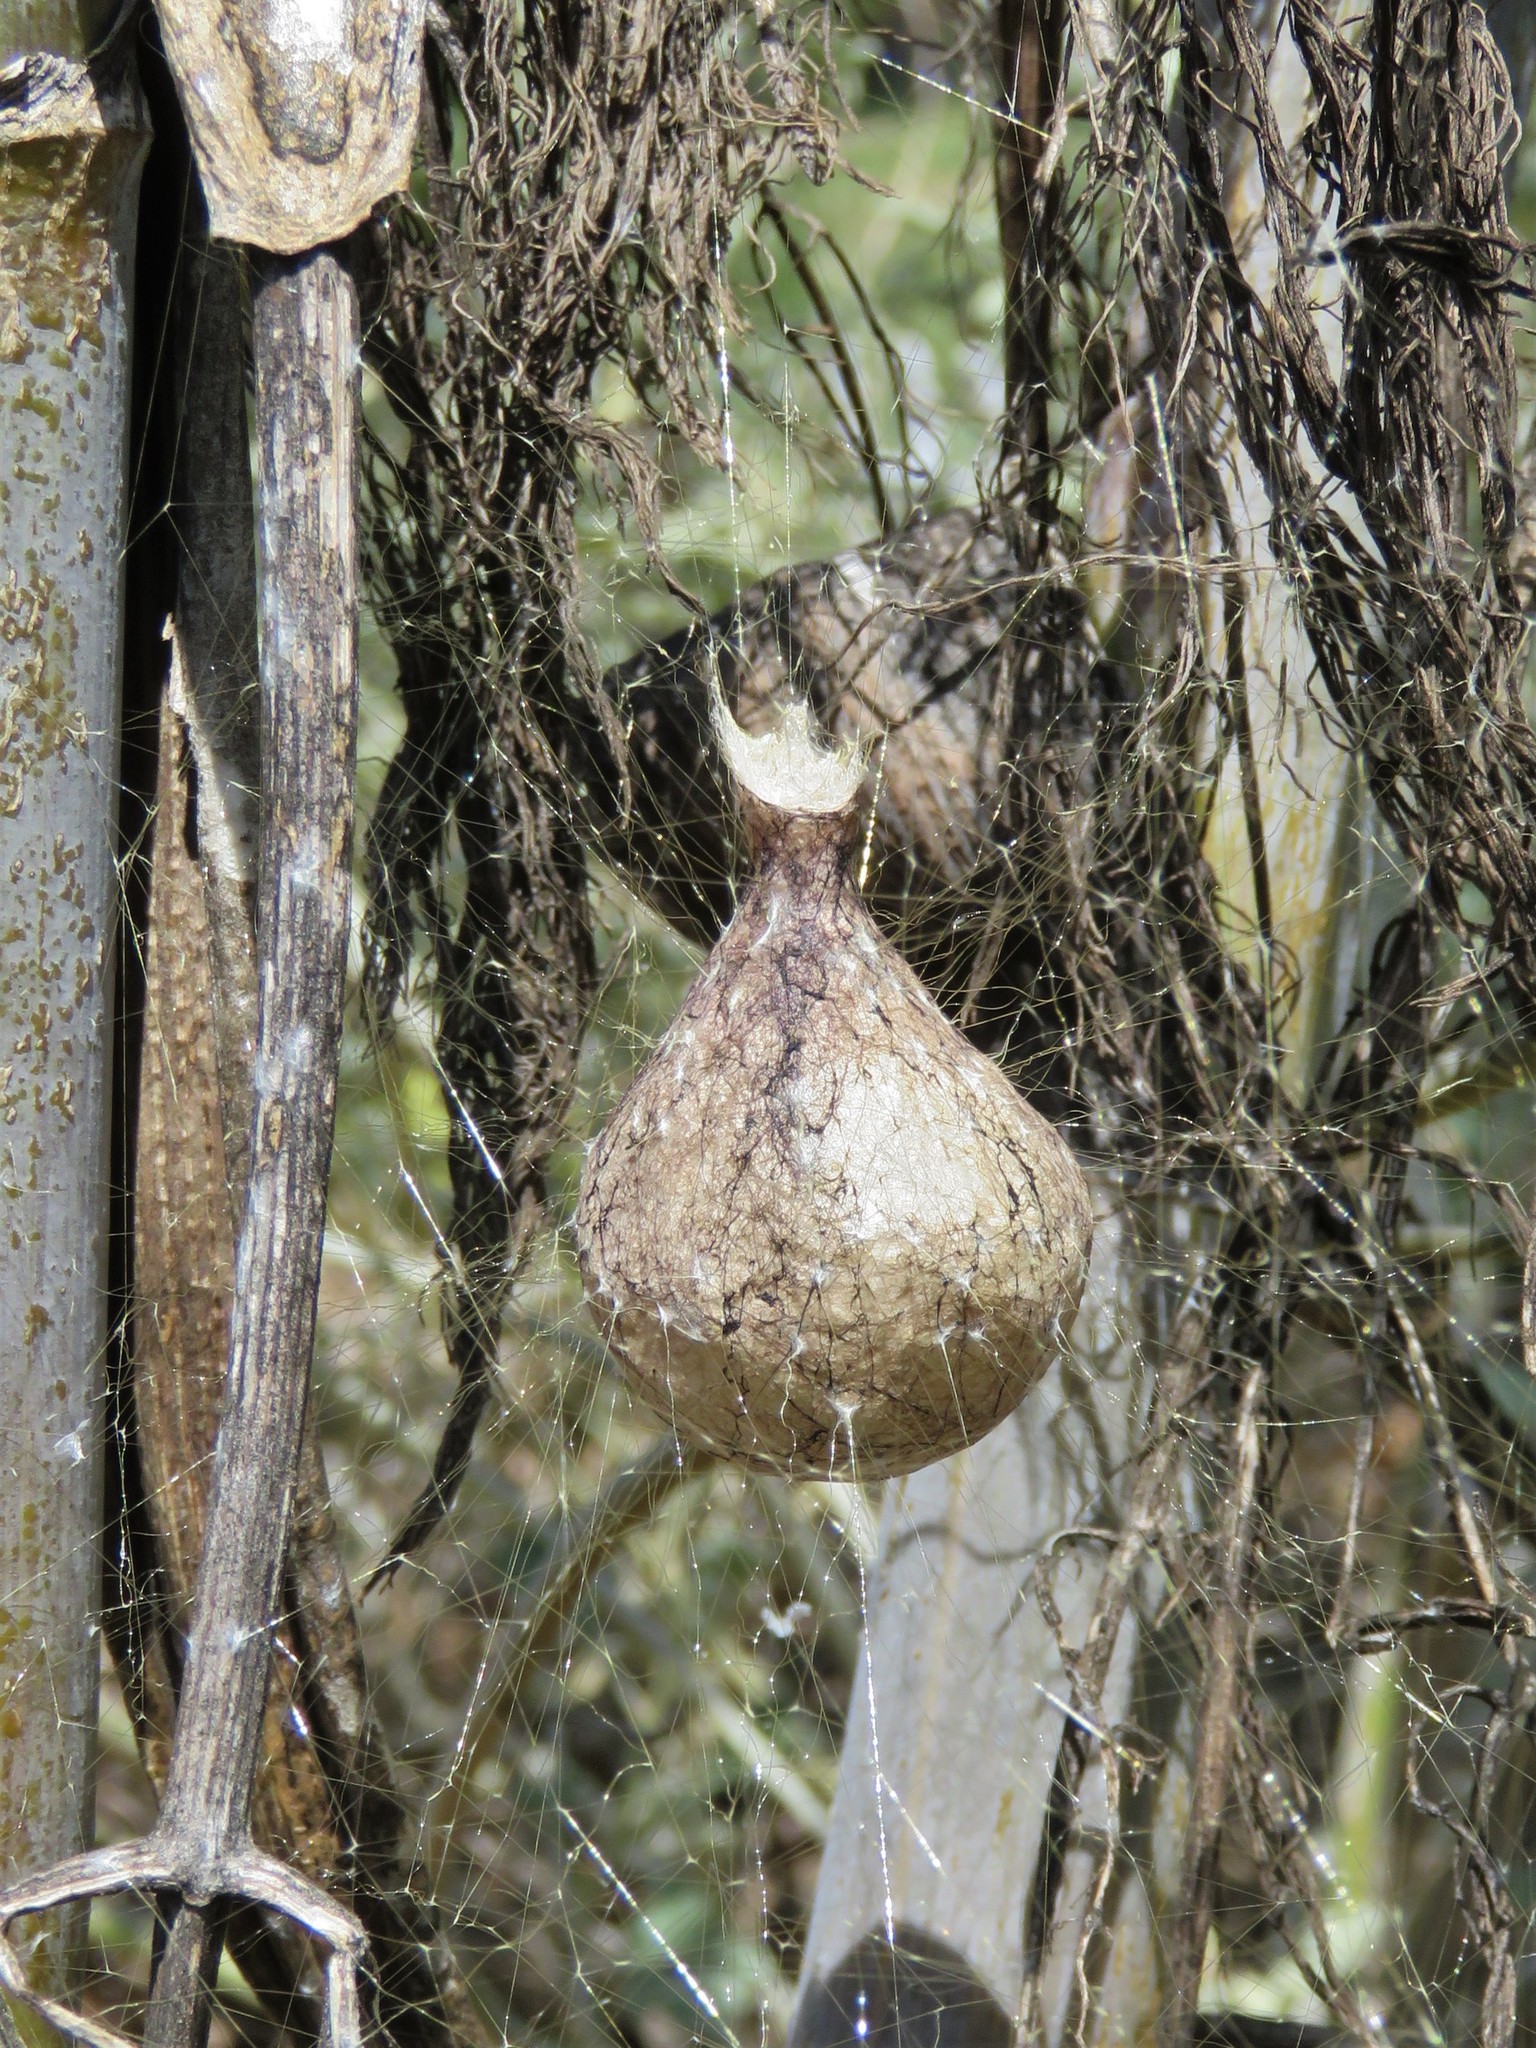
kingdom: Animalia
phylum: Arthropoda
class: Arachnida
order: Araneae
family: Araneidae
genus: Argiope
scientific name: Argiope aurantia
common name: Orb weavers
